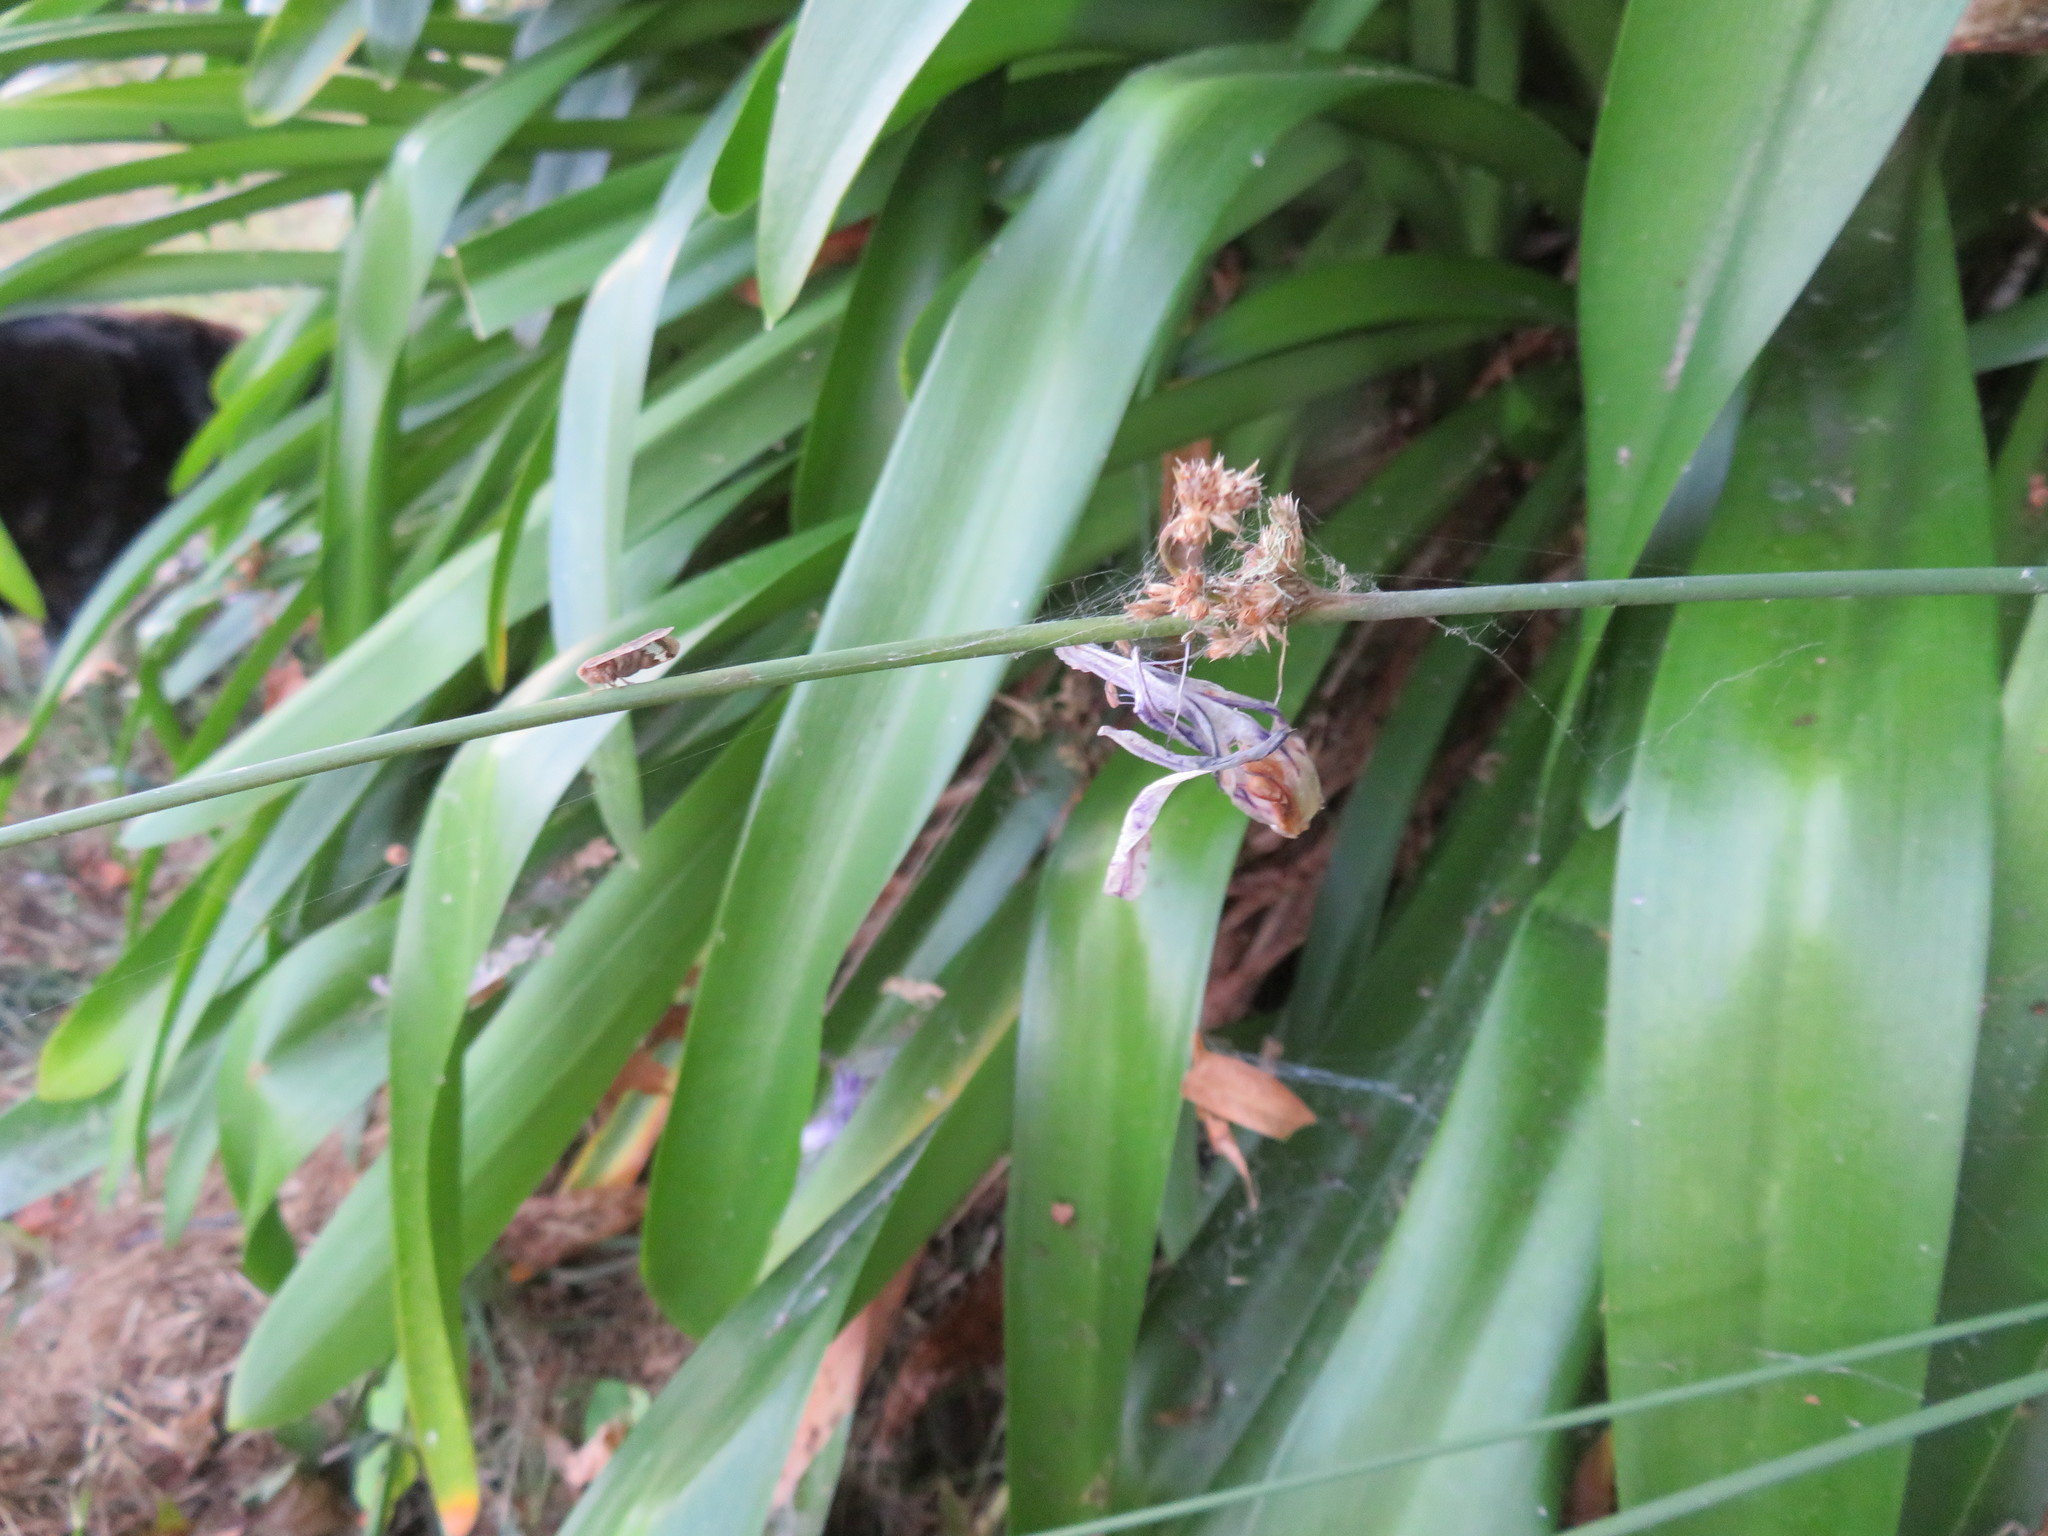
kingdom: Animalia
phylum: Arthropoda
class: Insecta
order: Hemiptera
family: Ricaniidae
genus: Scolypopa
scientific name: Scolypopa australis
